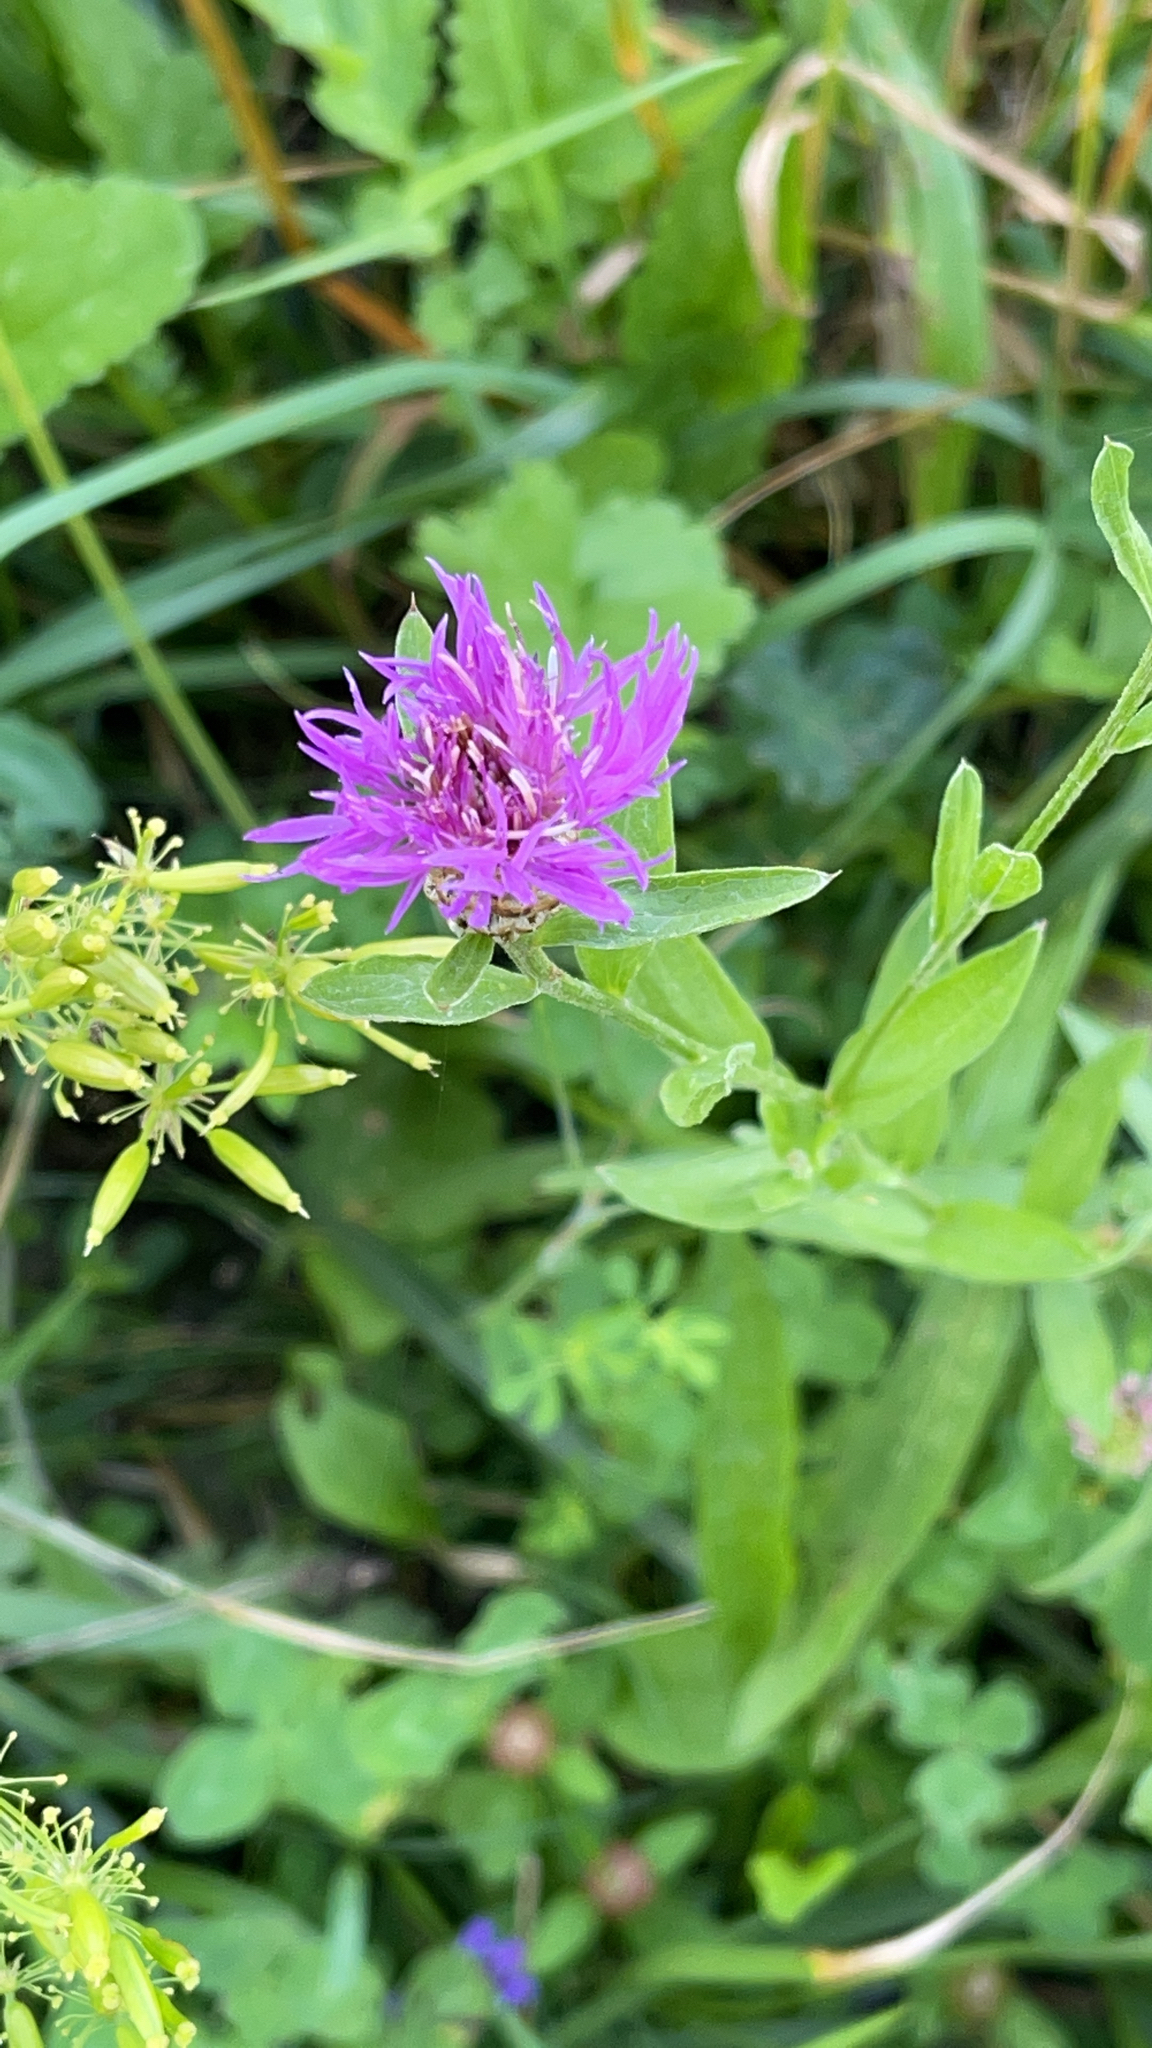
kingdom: Plantae
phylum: Tracheophyta
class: Magnoliopsida
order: Asterales
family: Asteraceae
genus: Centaurea
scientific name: Centaurea jacea
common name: Brown knapweed
